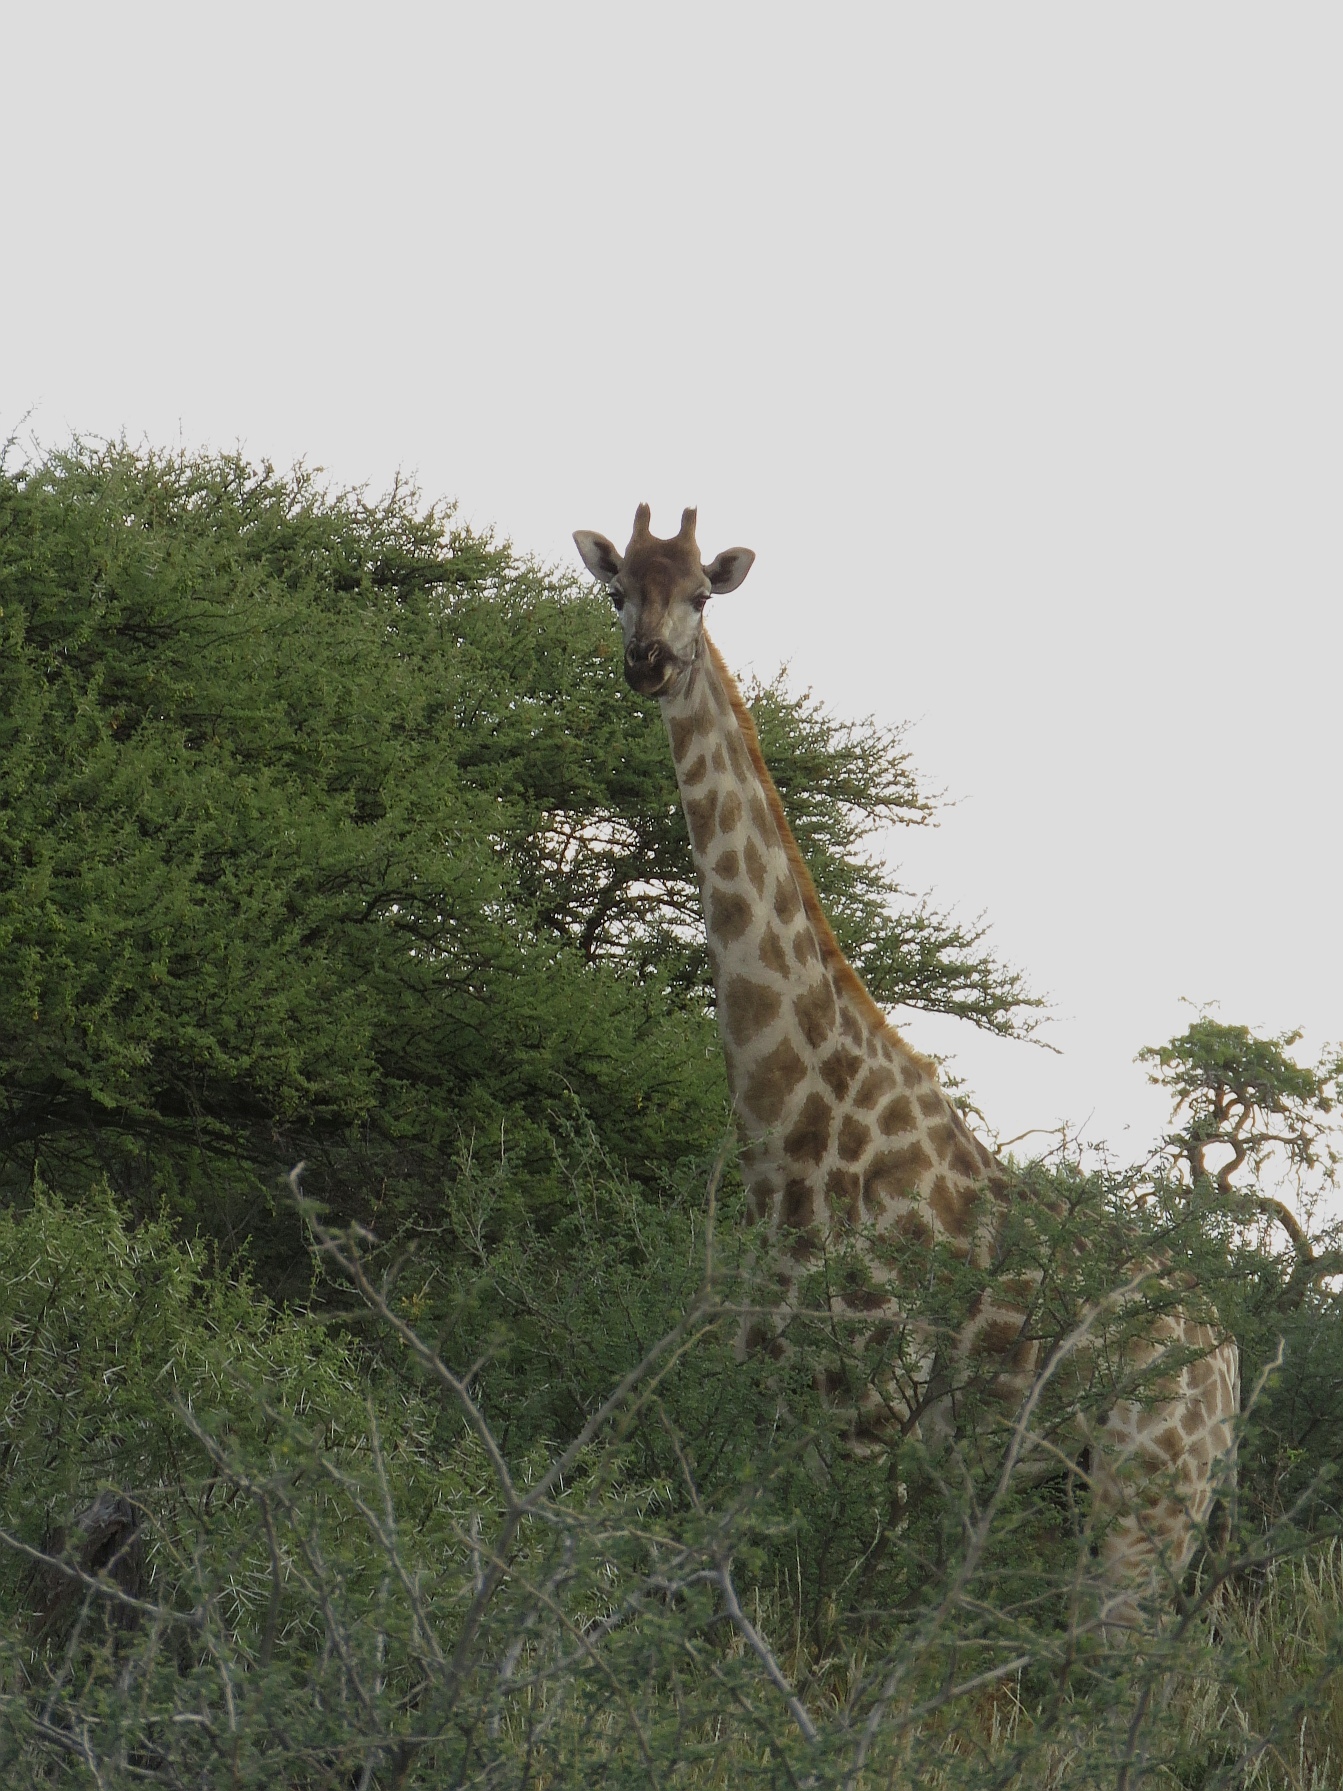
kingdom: Animalia
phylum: Chordata
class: Mammalia
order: Artiodactyla
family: Giraffidae
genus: Giraffa
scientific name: Giraffa giraffa
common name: Southern giraffe
